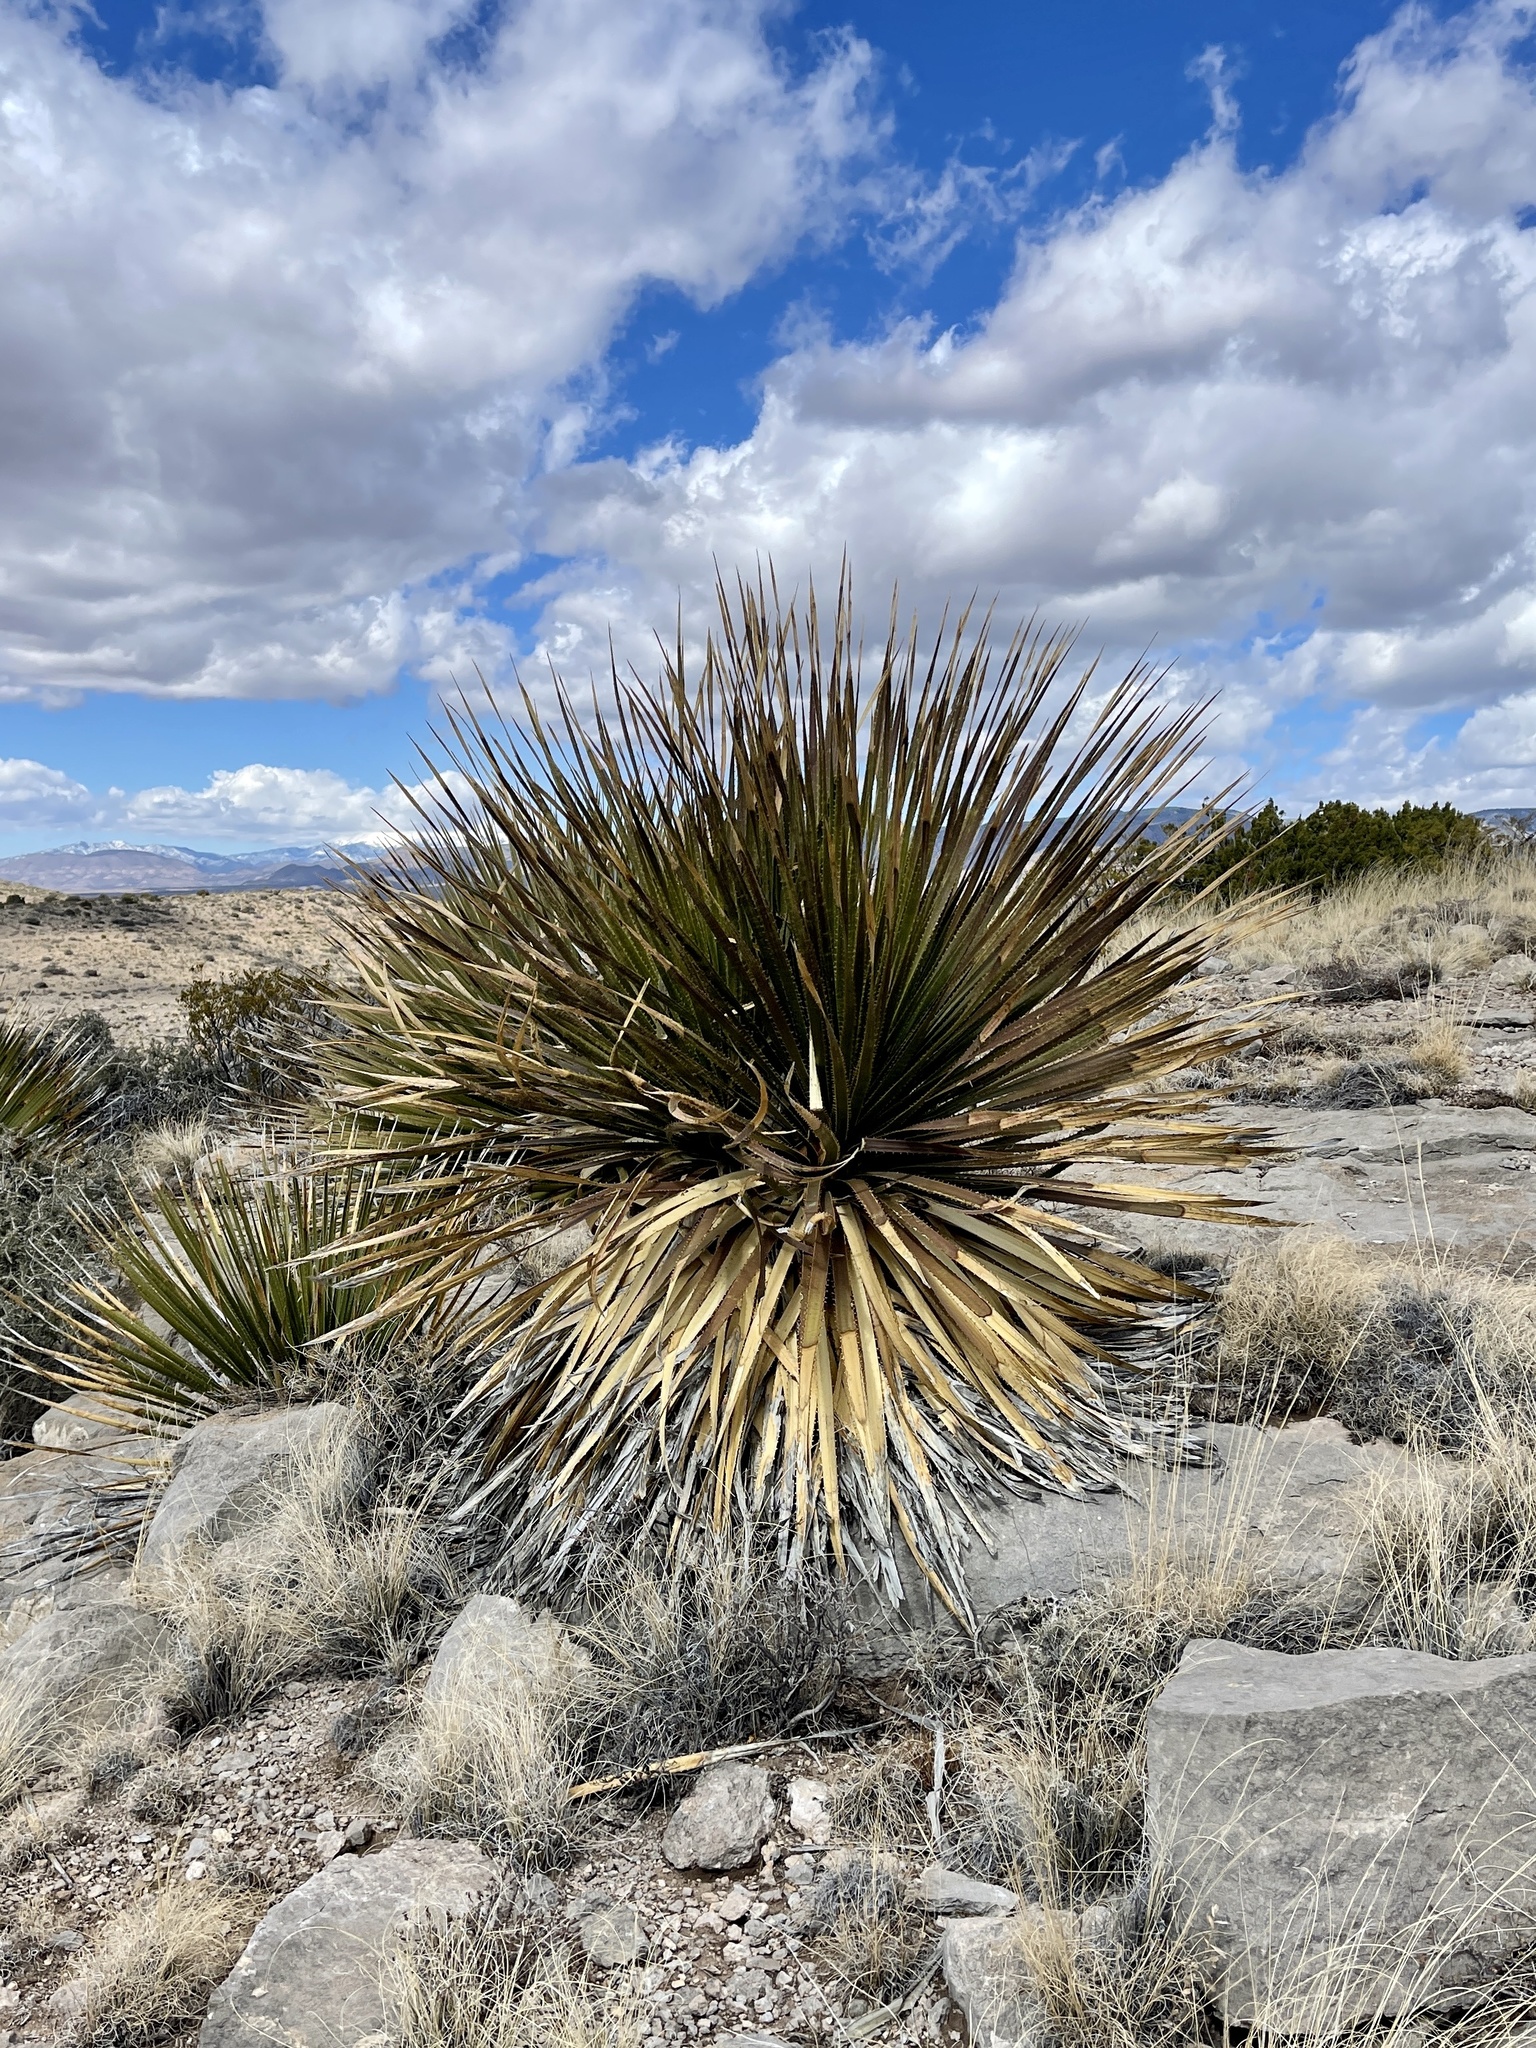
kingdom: Plantae
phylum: Tracheophyta
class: Liliopsida
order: Asparagales
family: Asparagaceae
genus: Dasylirion
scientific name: Dasylirion wheeleri
